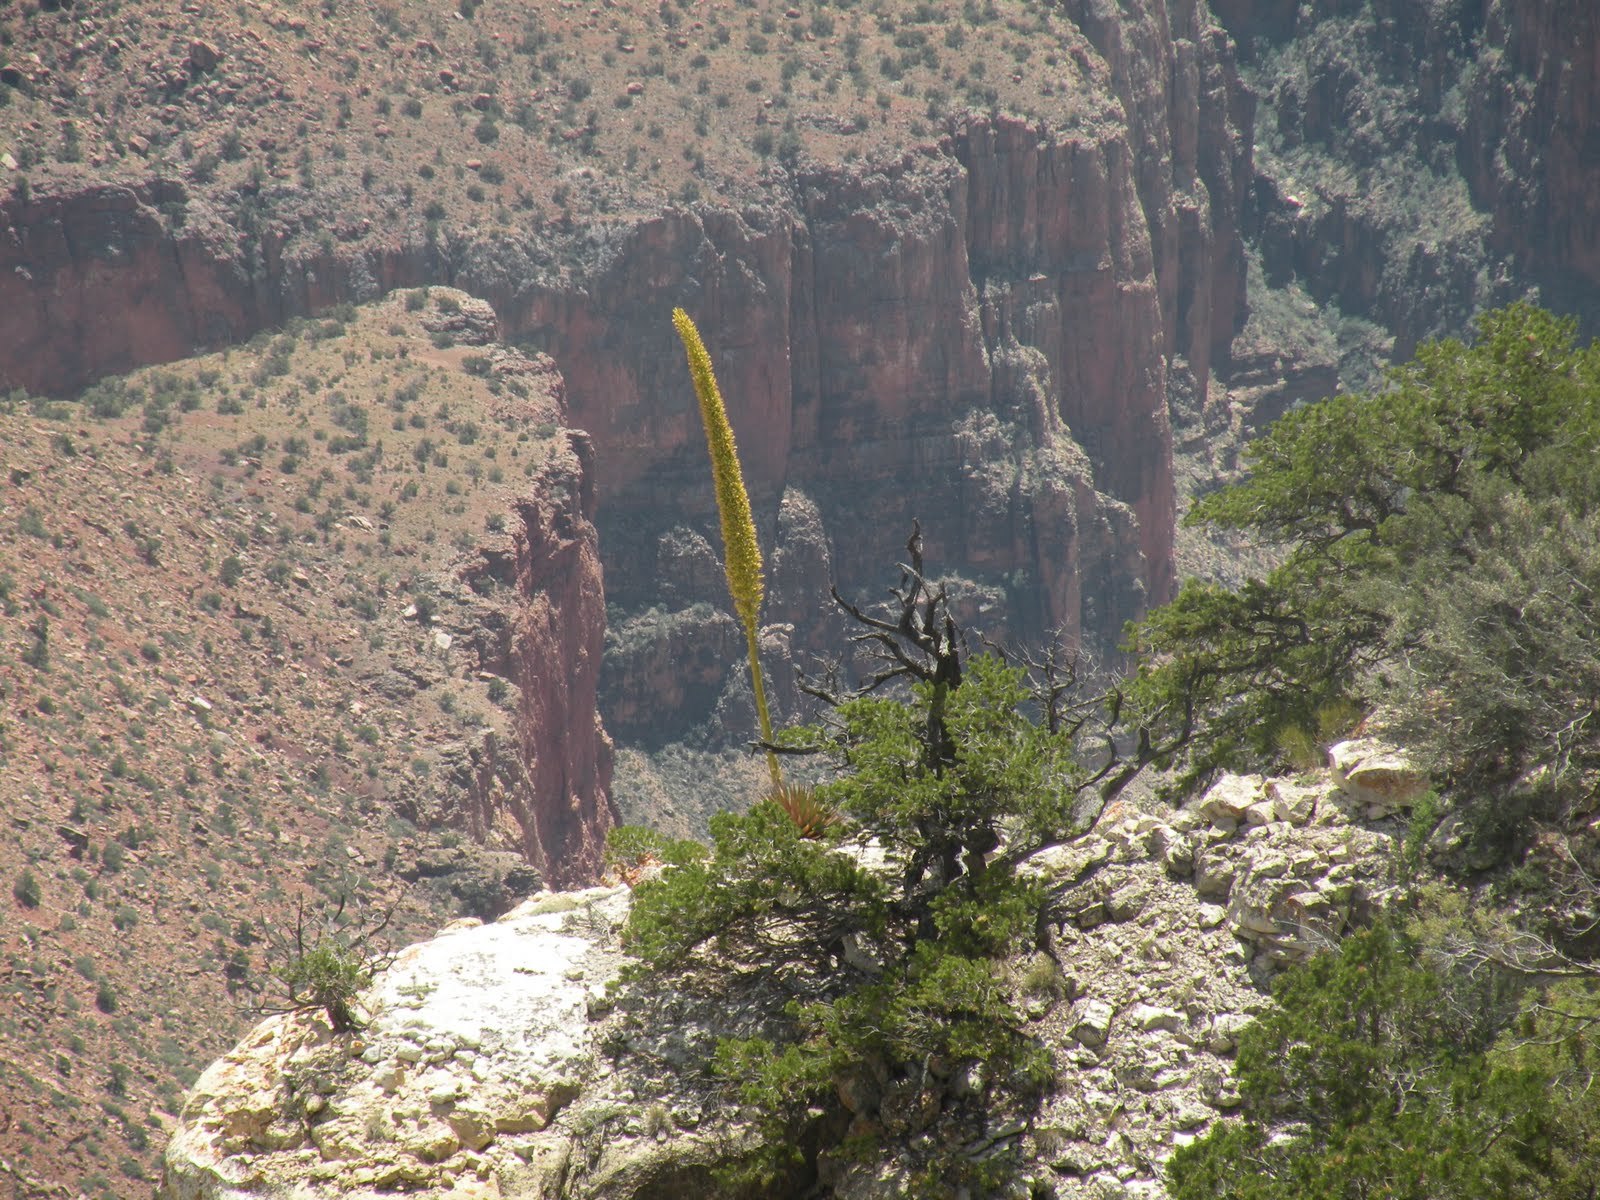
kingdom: Plantae
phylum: Tracheophyta
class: Liliopsida
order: Asparagales
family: Asparagaceae
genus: Agave
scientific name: Agave utahensis
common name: Utah agave
